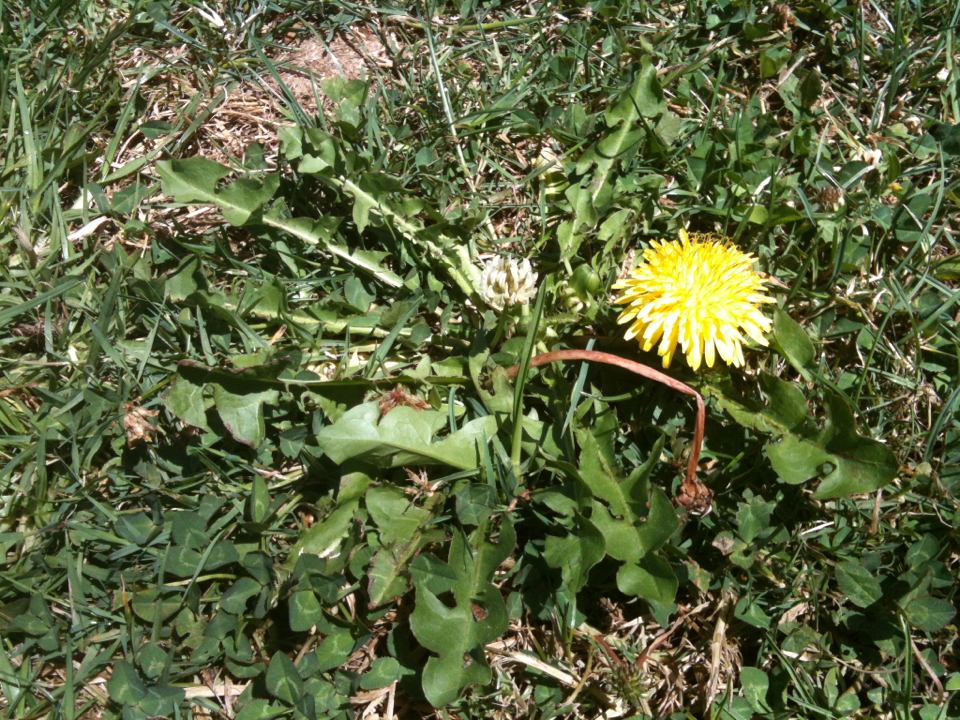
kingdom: Plantae
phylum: Tracheophyta
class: Magnoliopsida
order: Asterales
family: Asteraceae
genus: Taraxacum
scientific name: Taraxacum officinale
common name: Common dandelion
